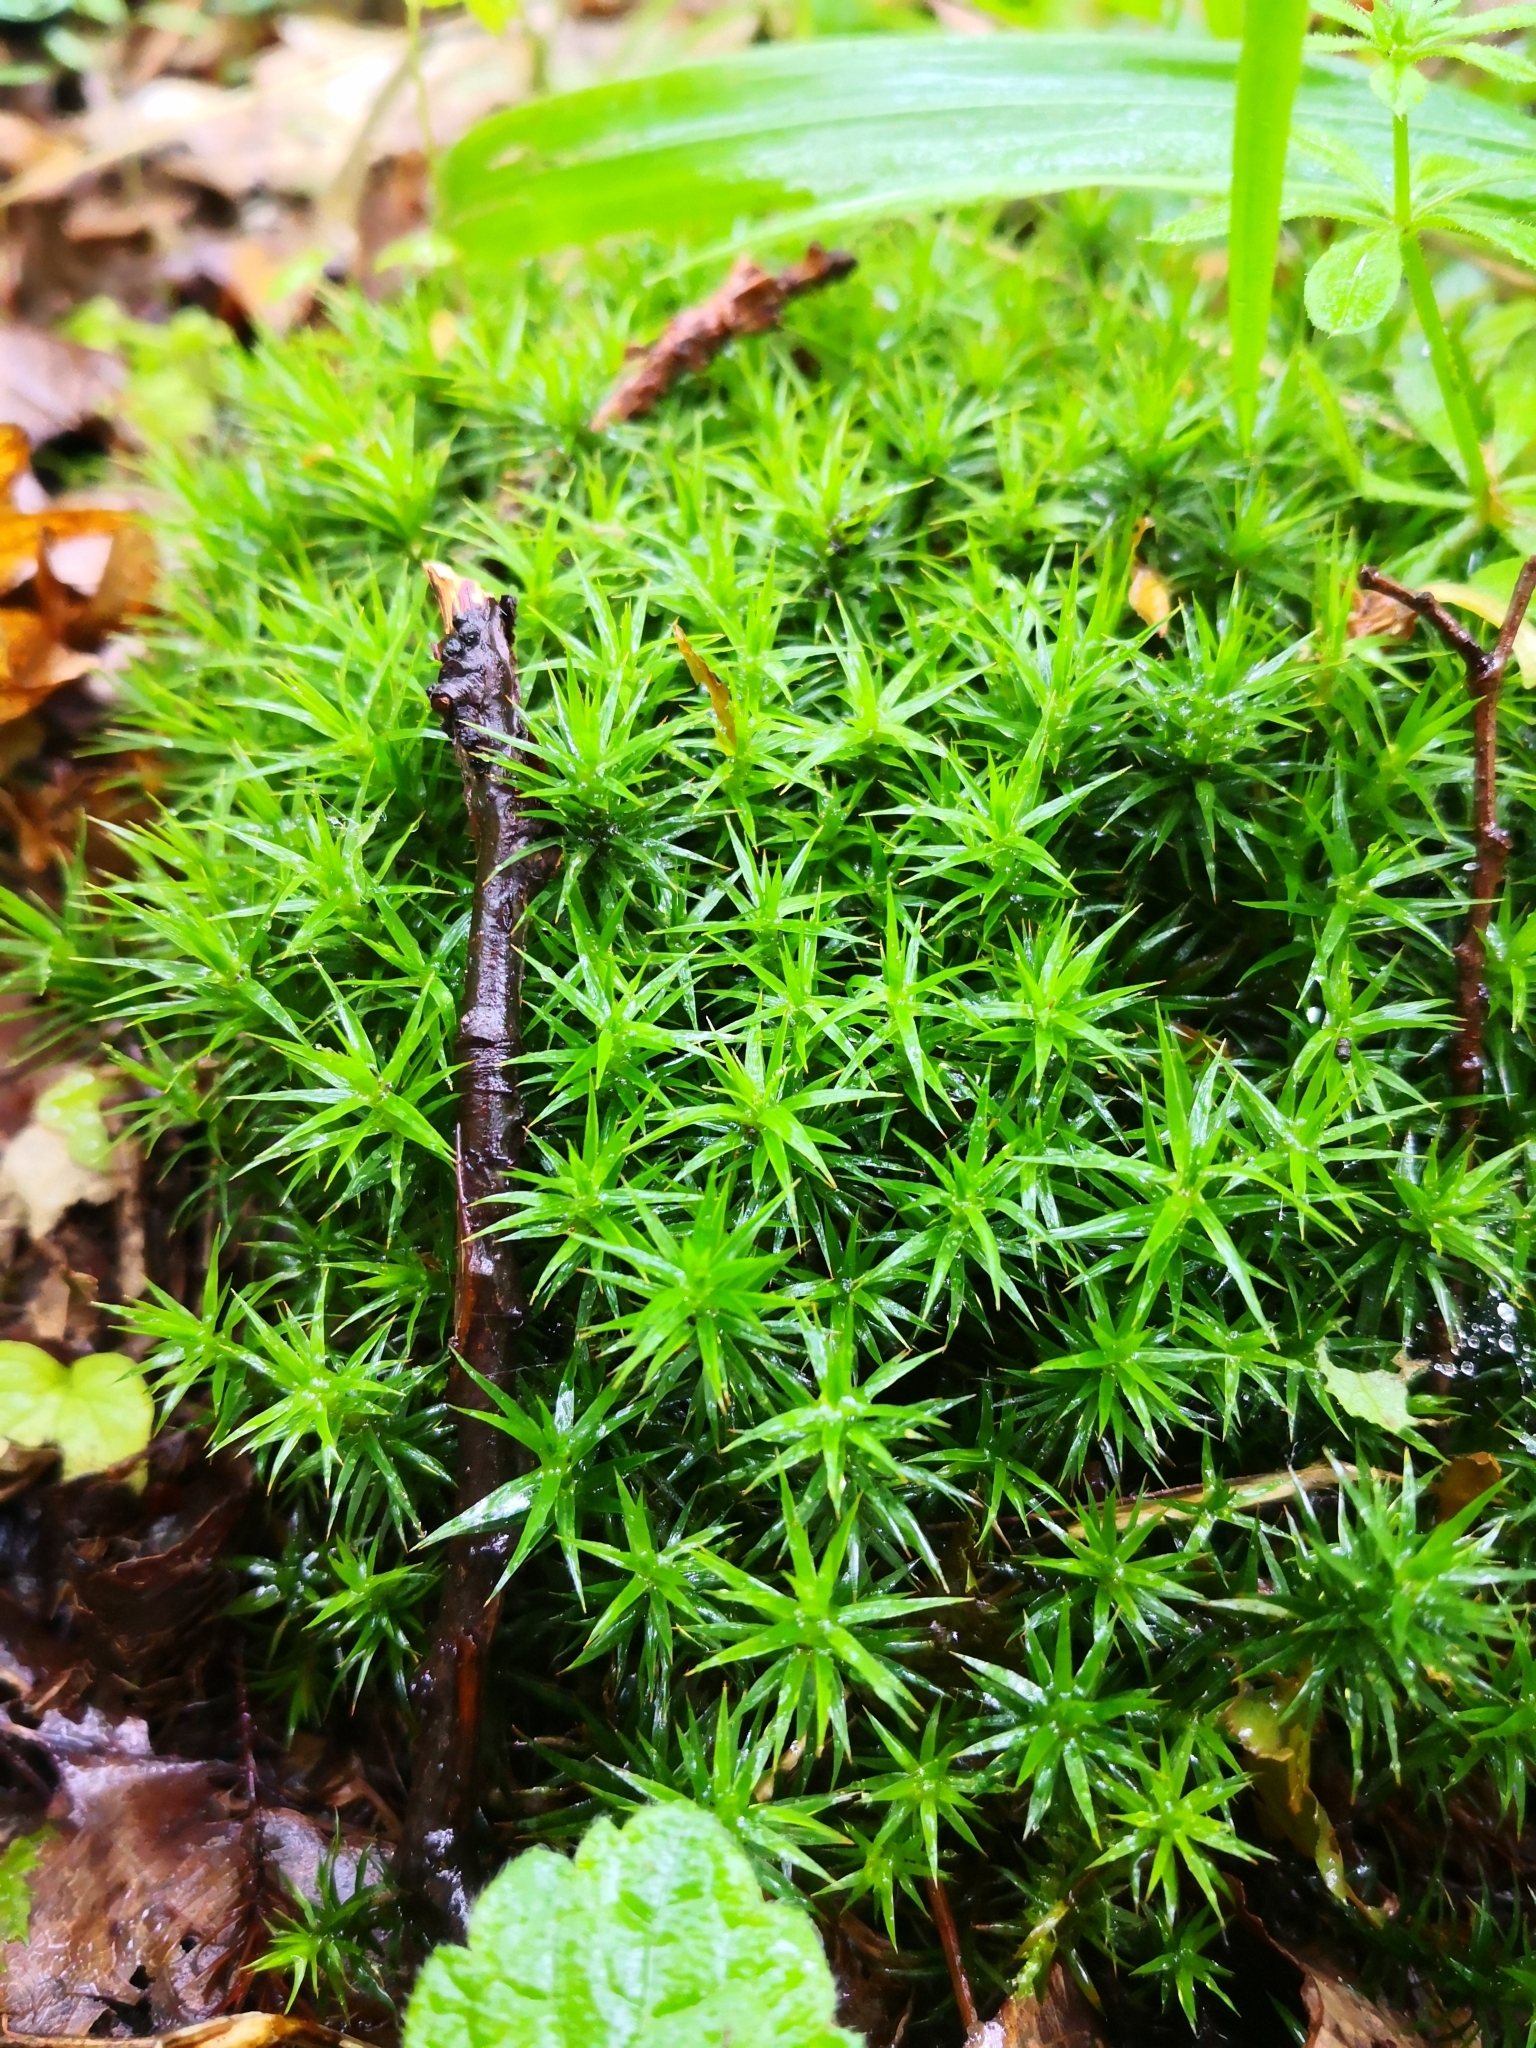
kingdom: Plantae
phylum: Bryophyta
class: Polytrichopsida
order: Polytrichales
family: Polytrichaceae
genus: Polytrichum
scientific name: Polytrichum formosum
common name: Bank haircap moss
